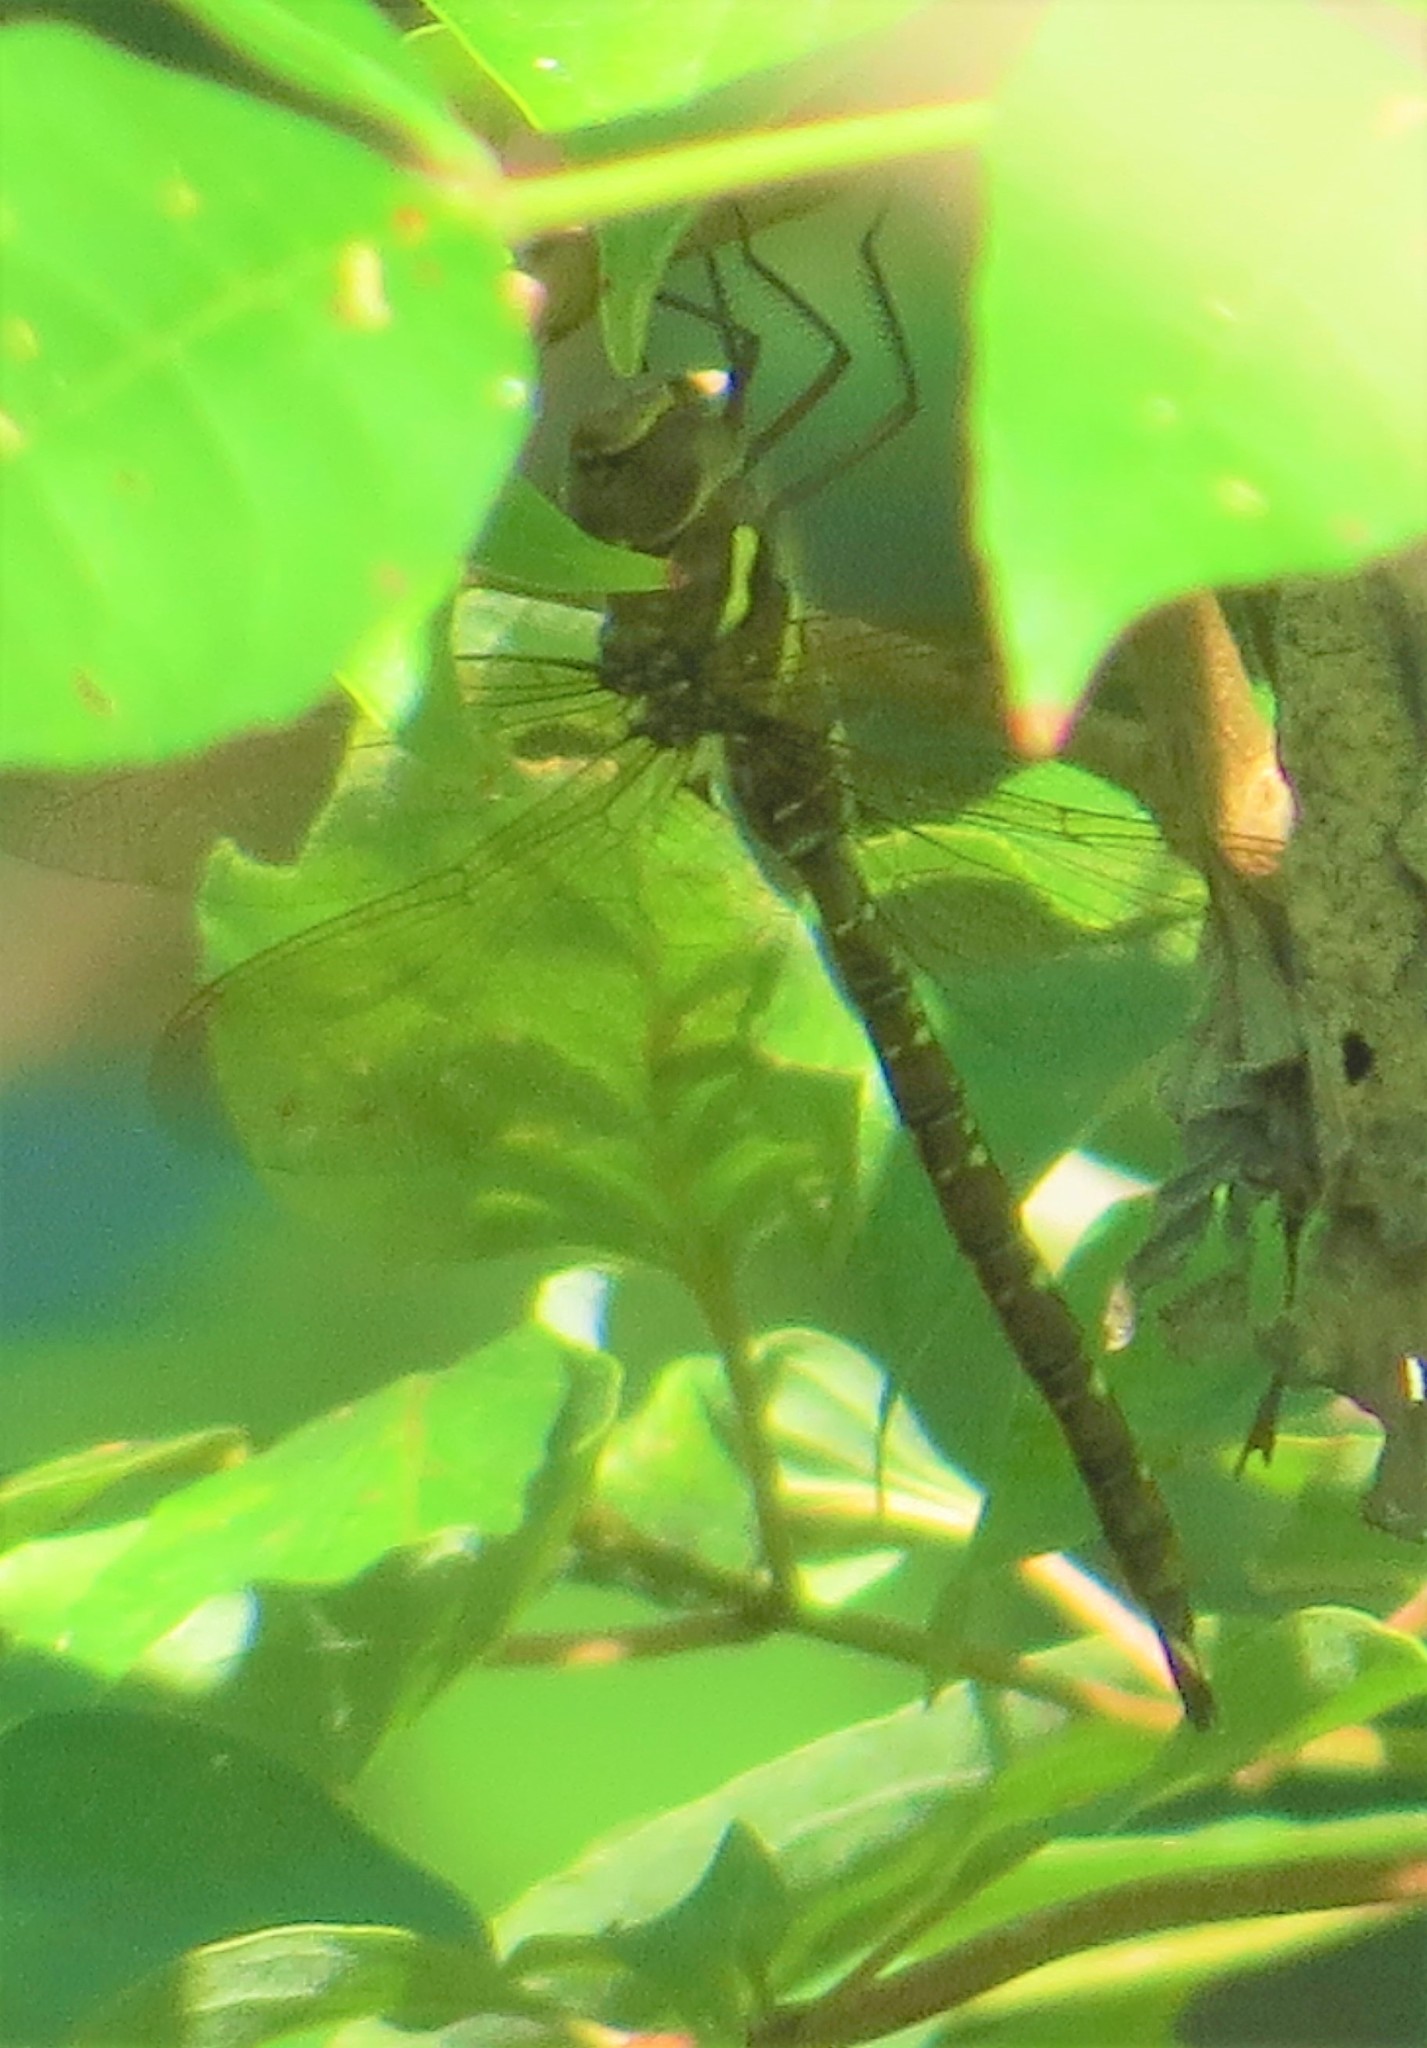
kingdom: Animalia
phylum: Arthropoda
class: Insecta
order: Odonata
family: Aeshnidae
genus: Aeshna
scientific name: Aeshna umbrosa
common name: Shadow darner
